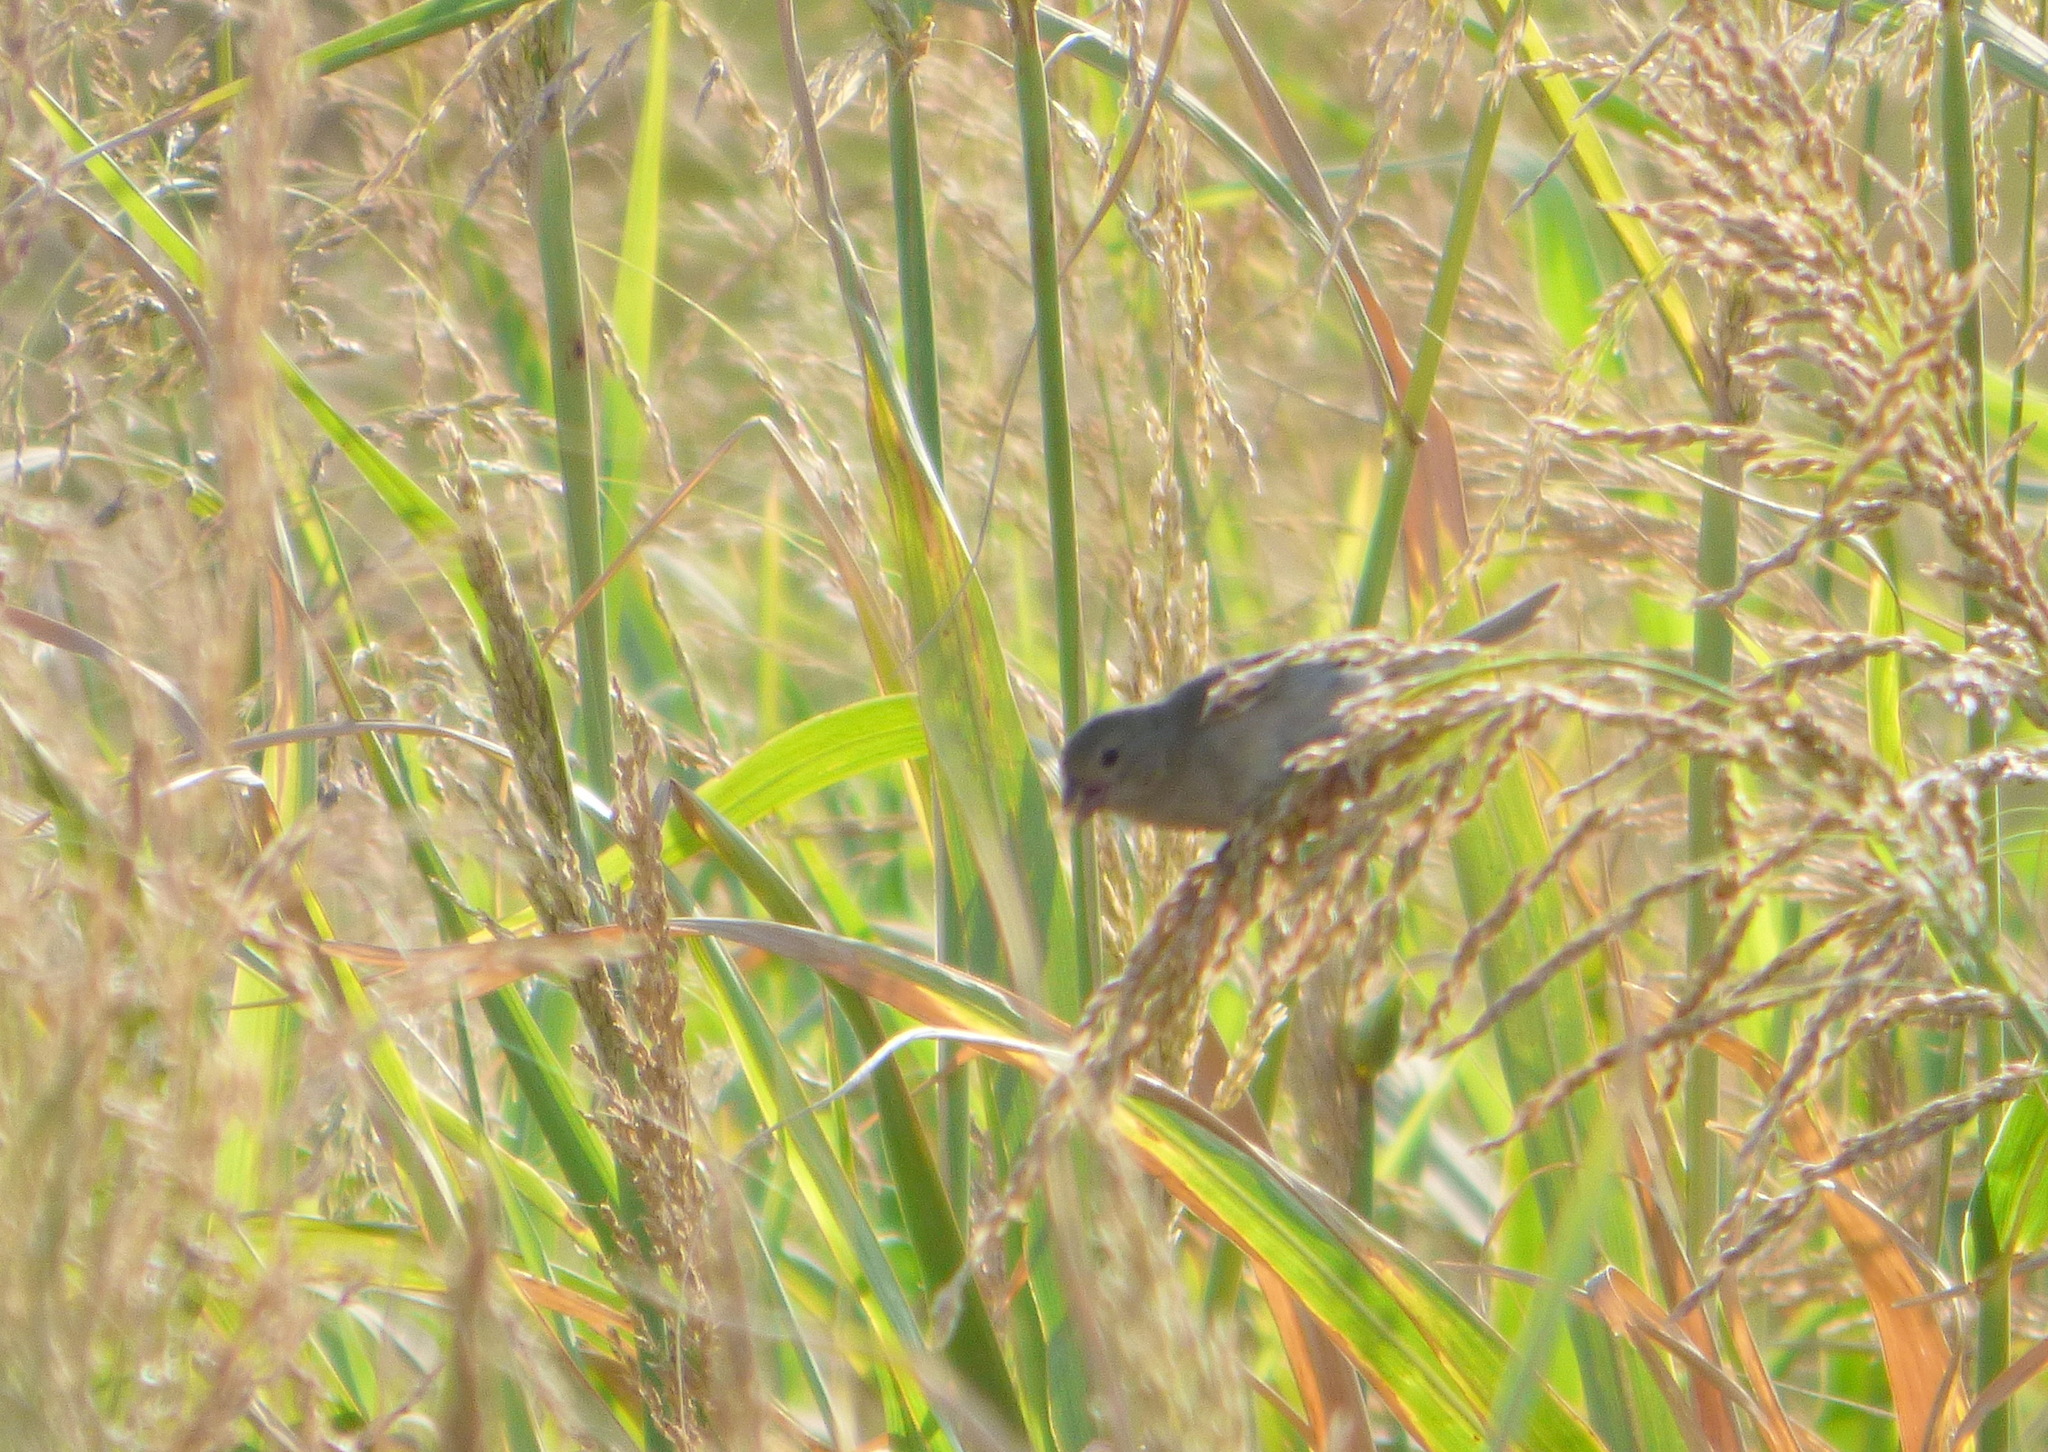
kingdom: Animalia
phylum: Chordata
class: Aves
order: Passeriformes
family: Thraupidae
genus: Asemospiza
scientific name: Asemospiza obscura
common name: Dull-colored grassquit
